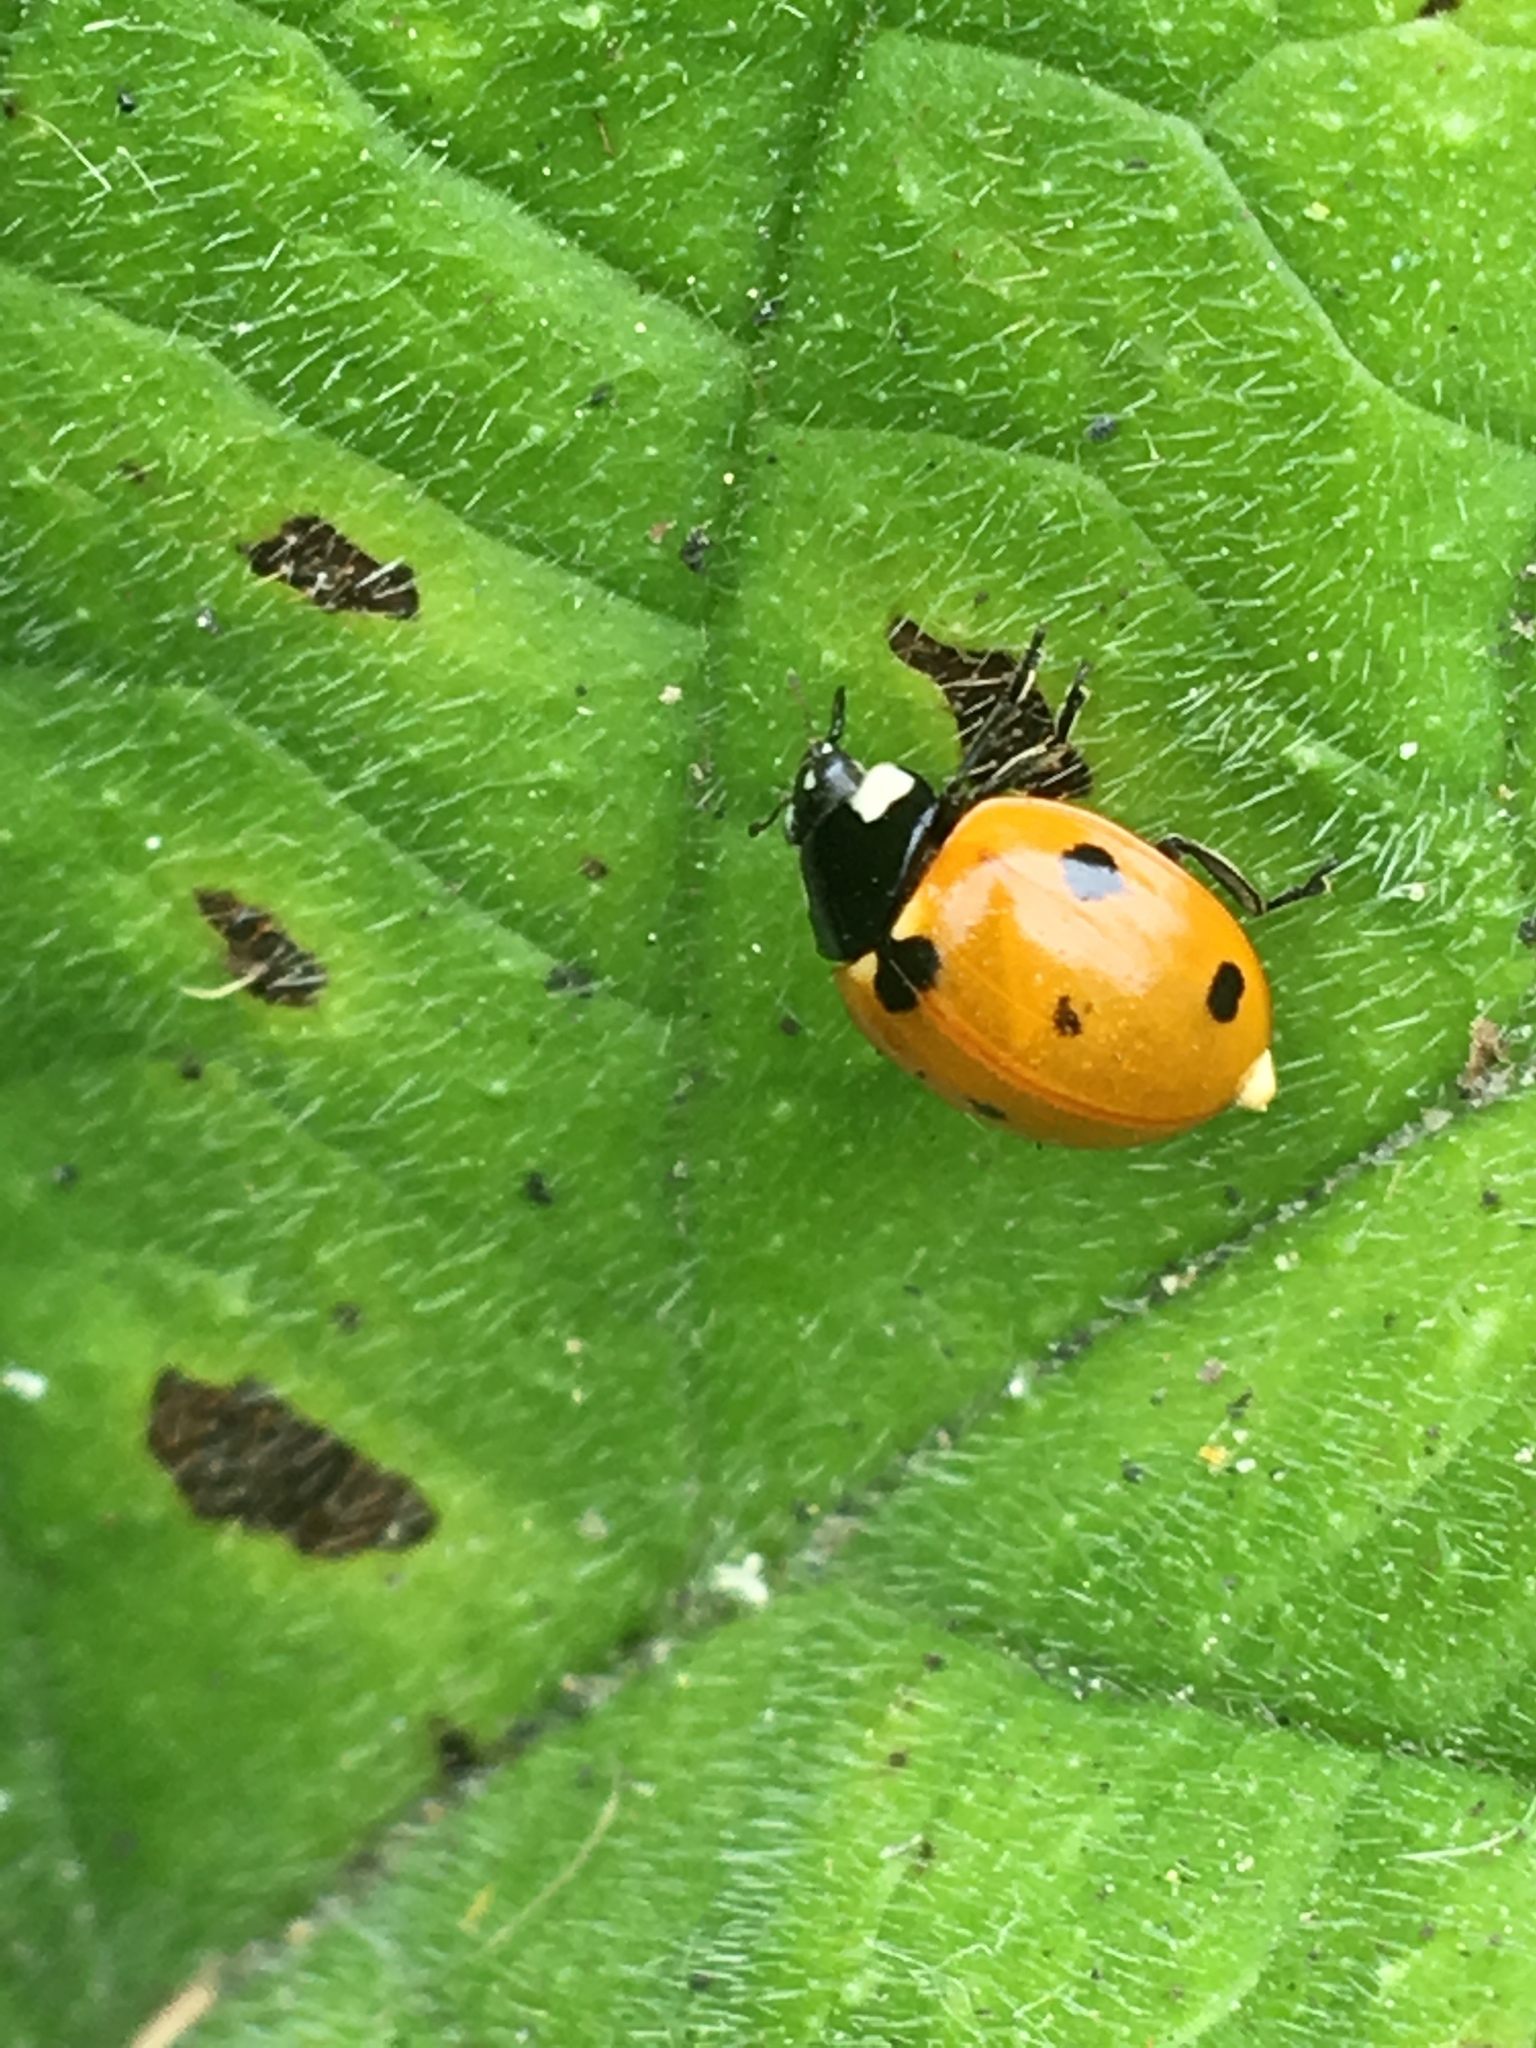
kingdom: Animalia
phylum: Arthropoda
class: Insecta
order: Coleoptera
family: Coccinellidae
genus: Coccinella
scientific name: Coccinella septempunctata
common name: Sevenspotted lady beetle
